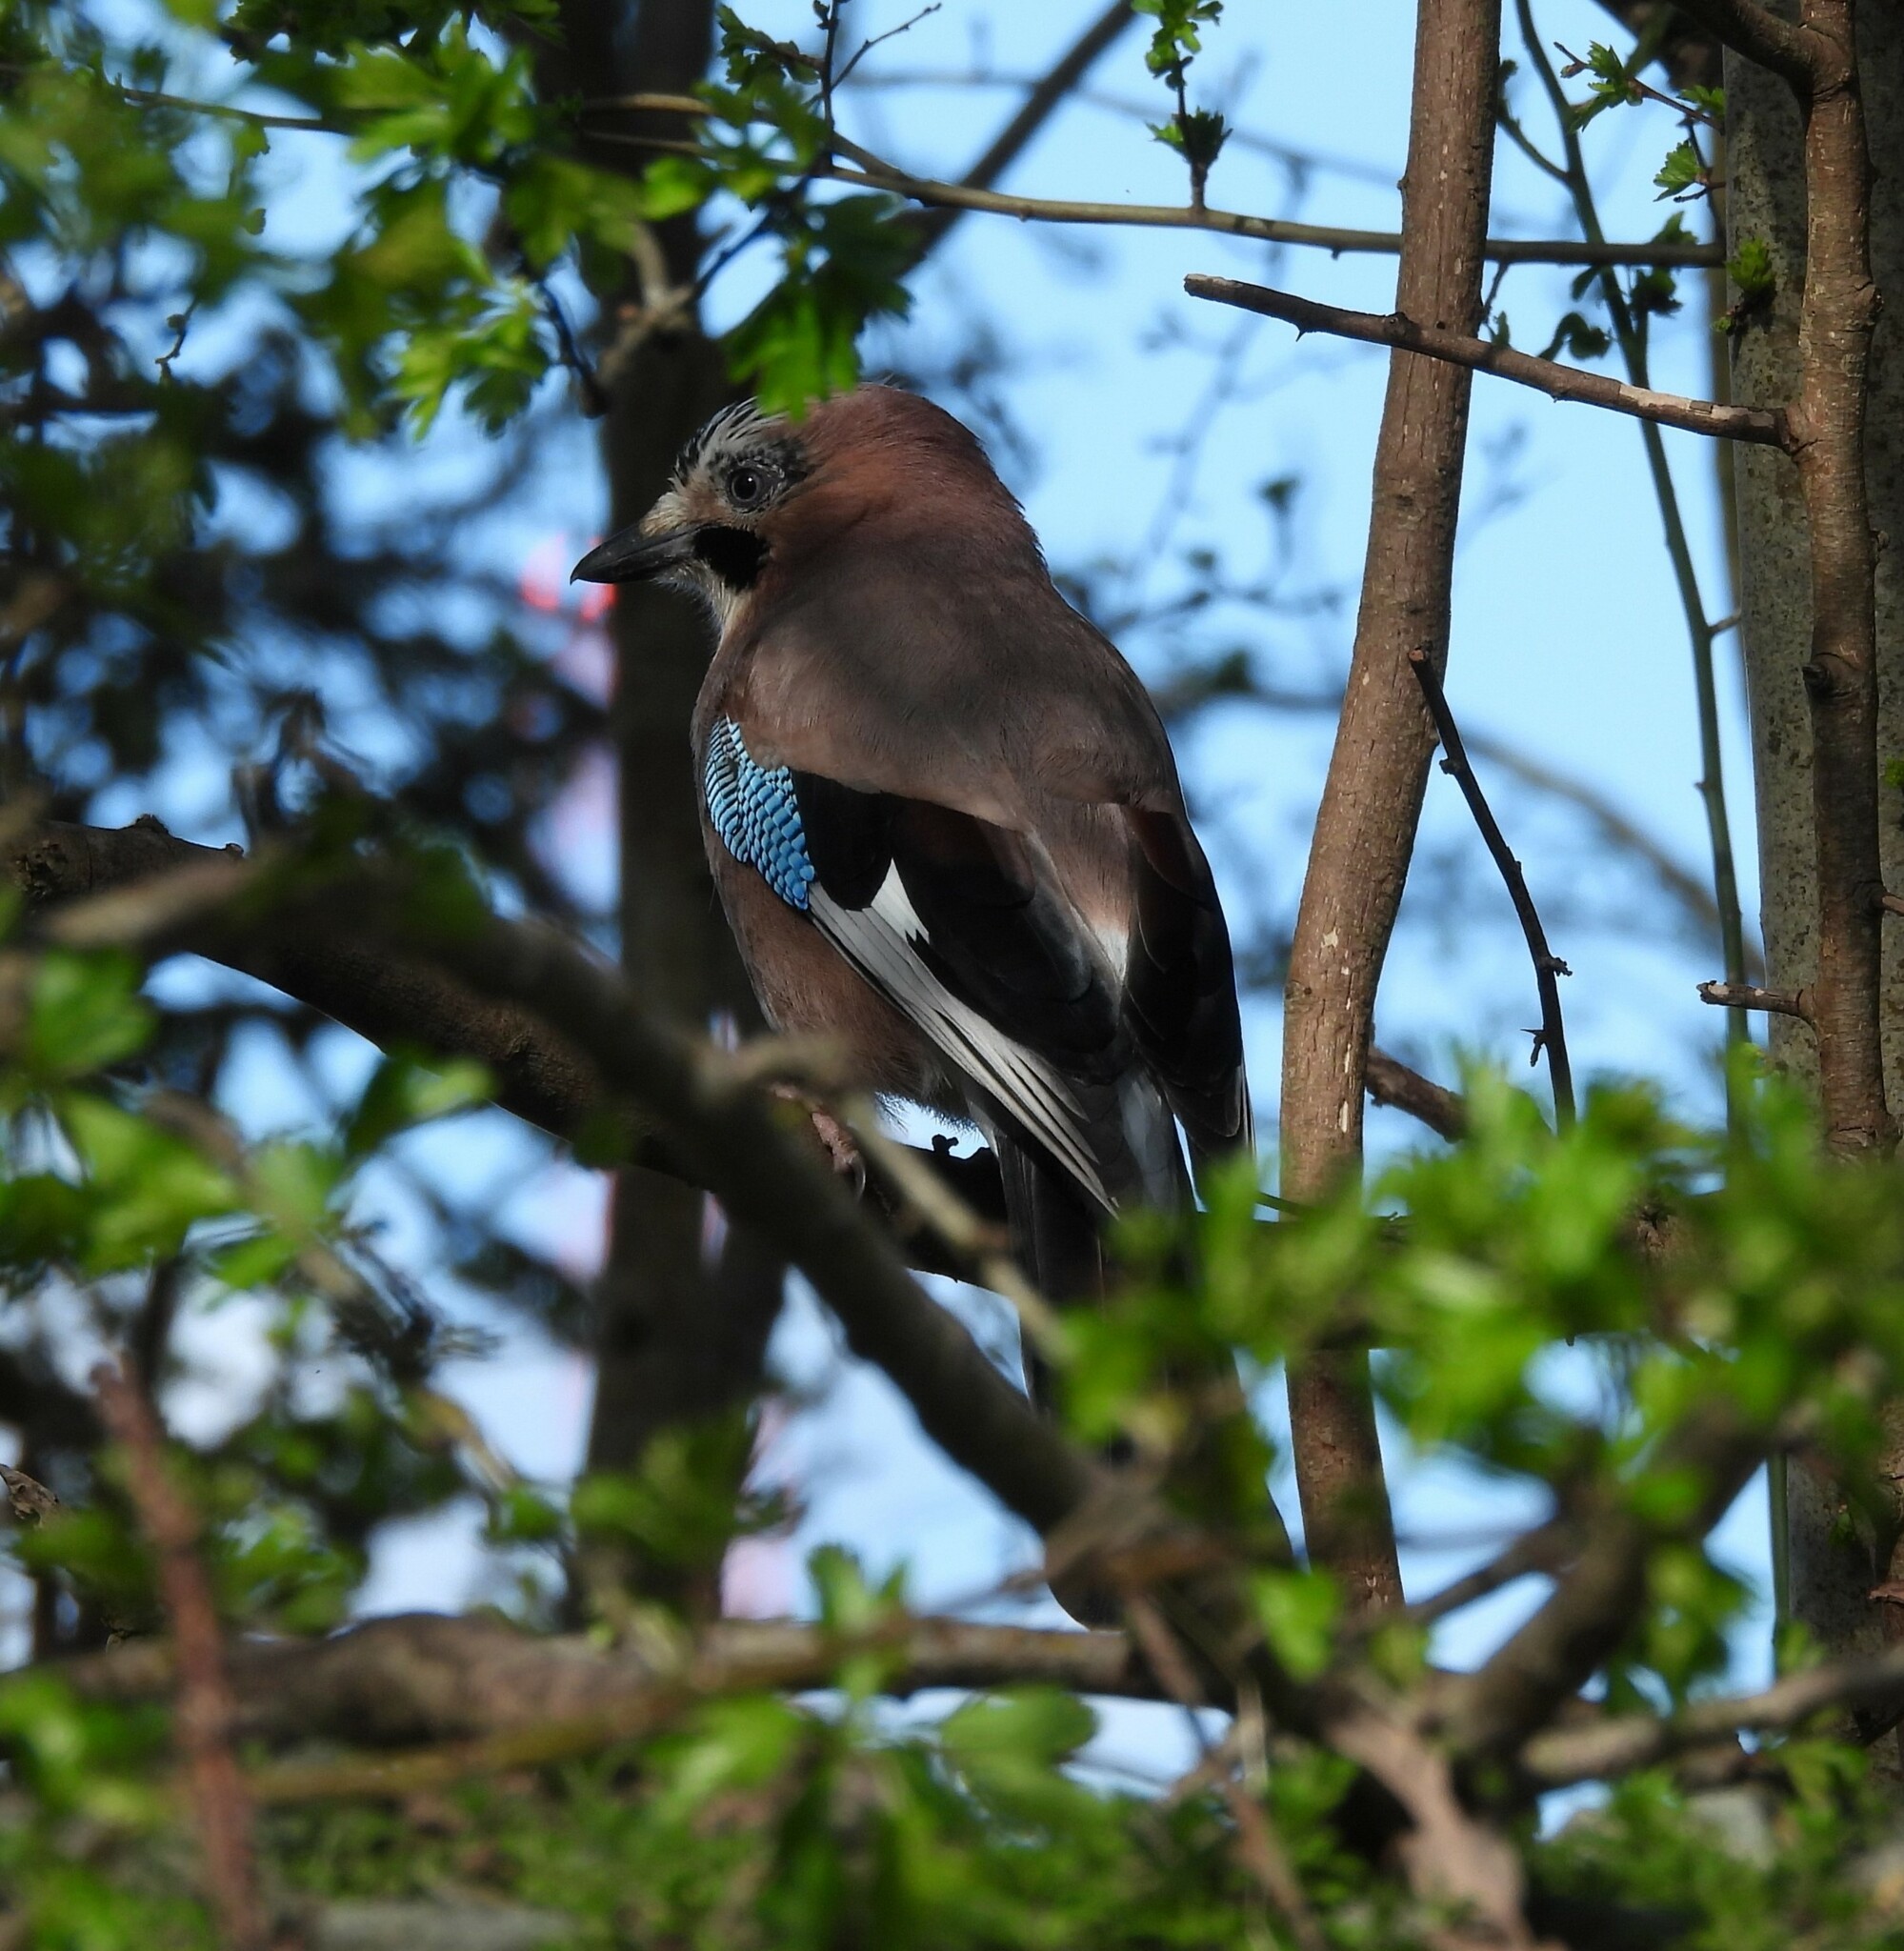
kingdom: Animalia
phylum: Chordata
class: Aves
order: Passeriformes
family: Corvidae
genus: Garrulus
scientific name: Garrulus glandarius
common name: Eurasian jay
